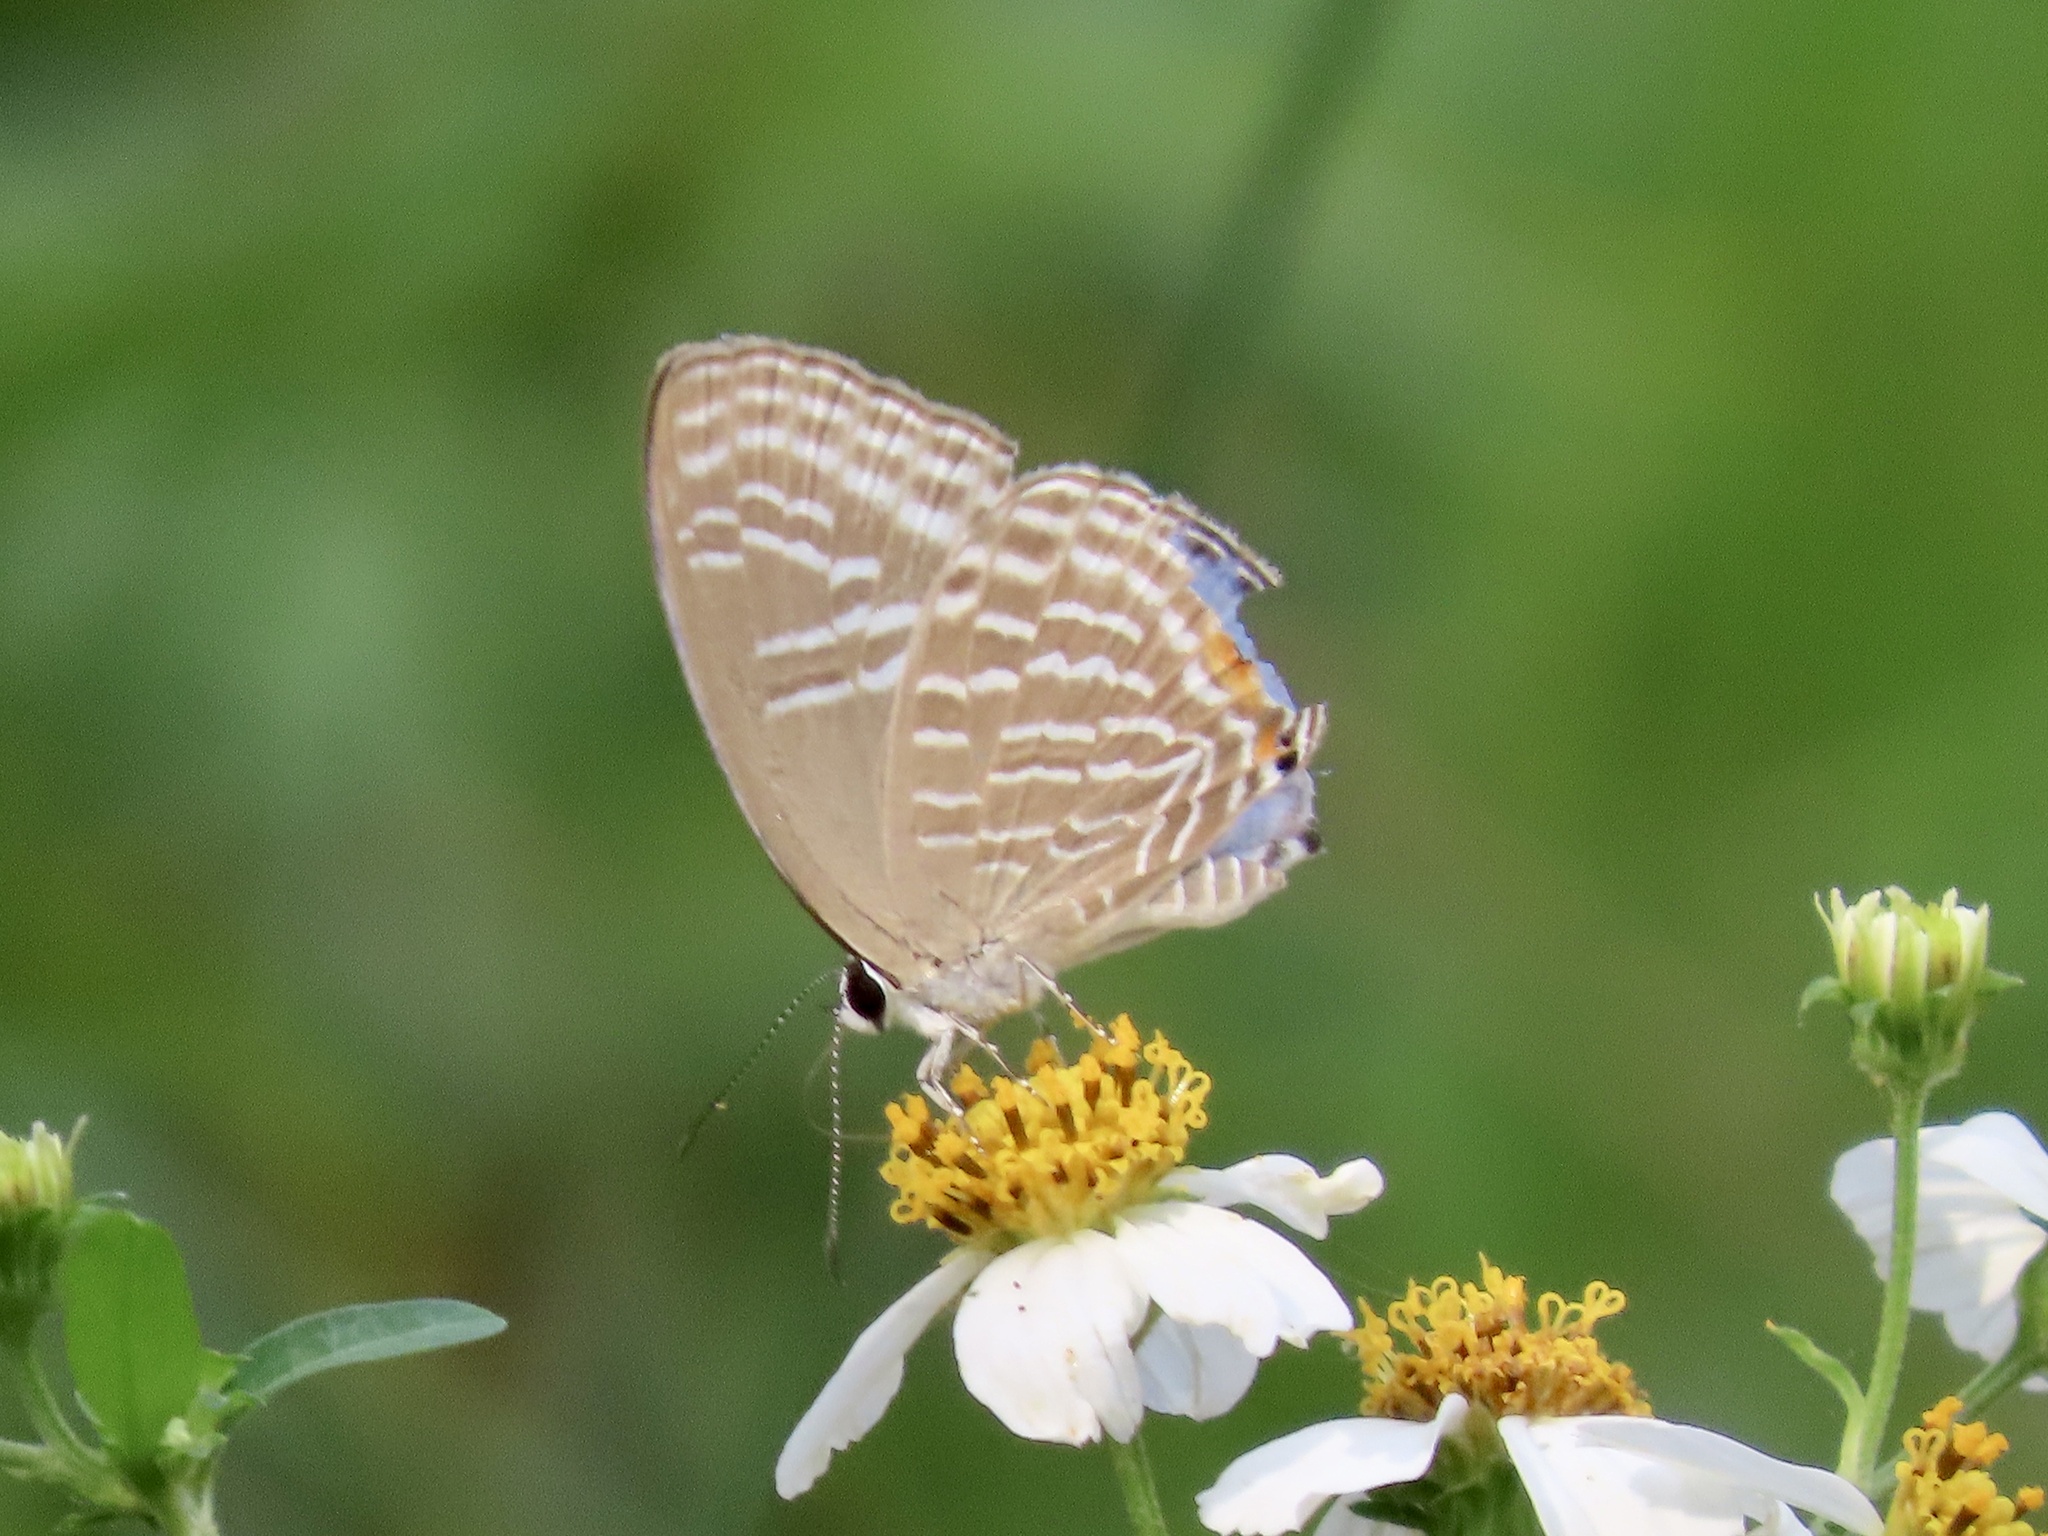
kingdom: Animalia
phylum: Arthropoda
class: Insecta
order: Lepidoptera
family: Lycaenidae
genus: Jamides
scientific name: Jamides alecto
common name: Metallic cerulean
